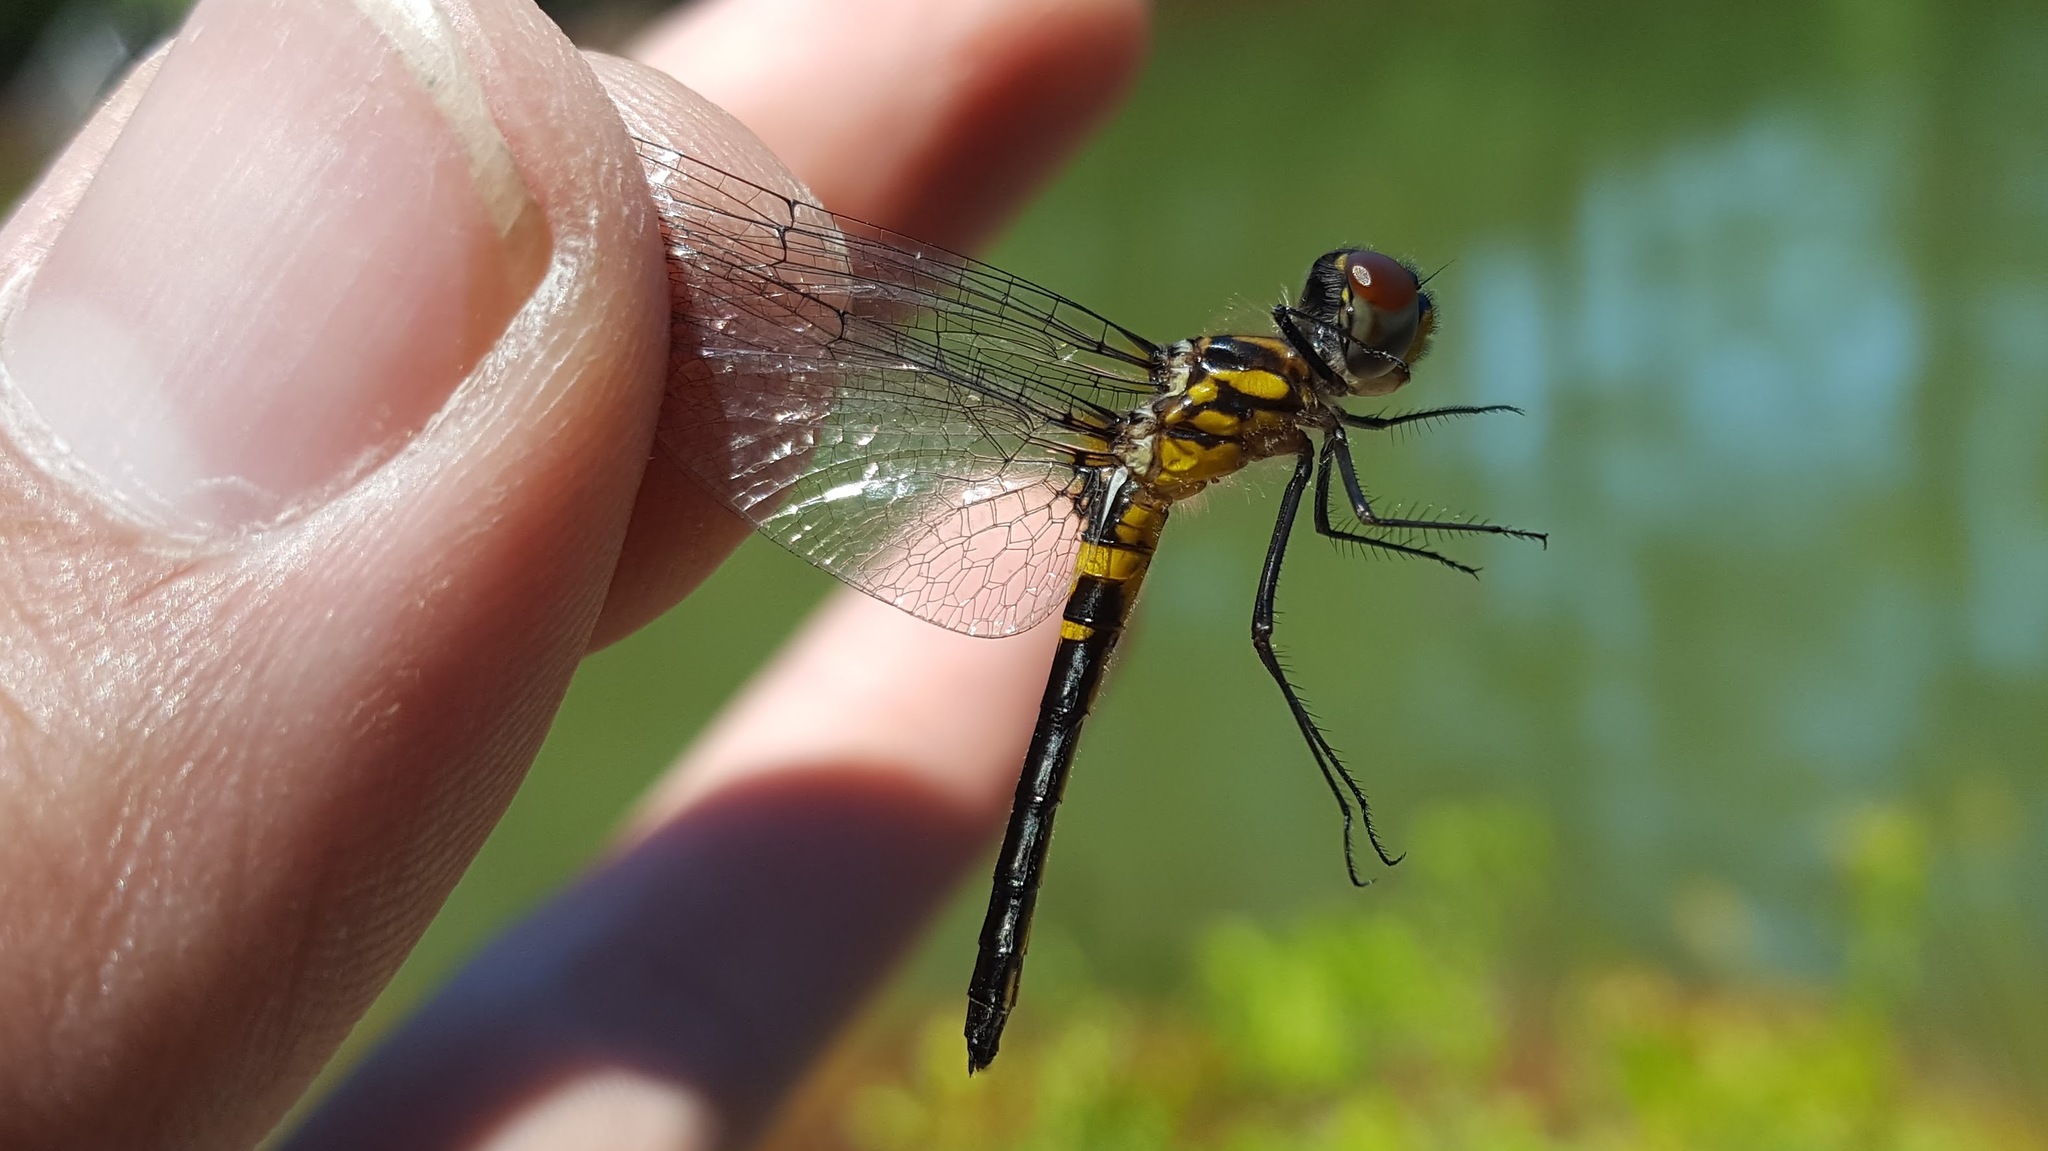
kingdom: Animalia
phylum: Arthropoda
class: Insecta
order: Odonata
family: Libellulidae
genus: Celithemis
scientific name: Celithemis verna
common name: Double-ringed pennant
